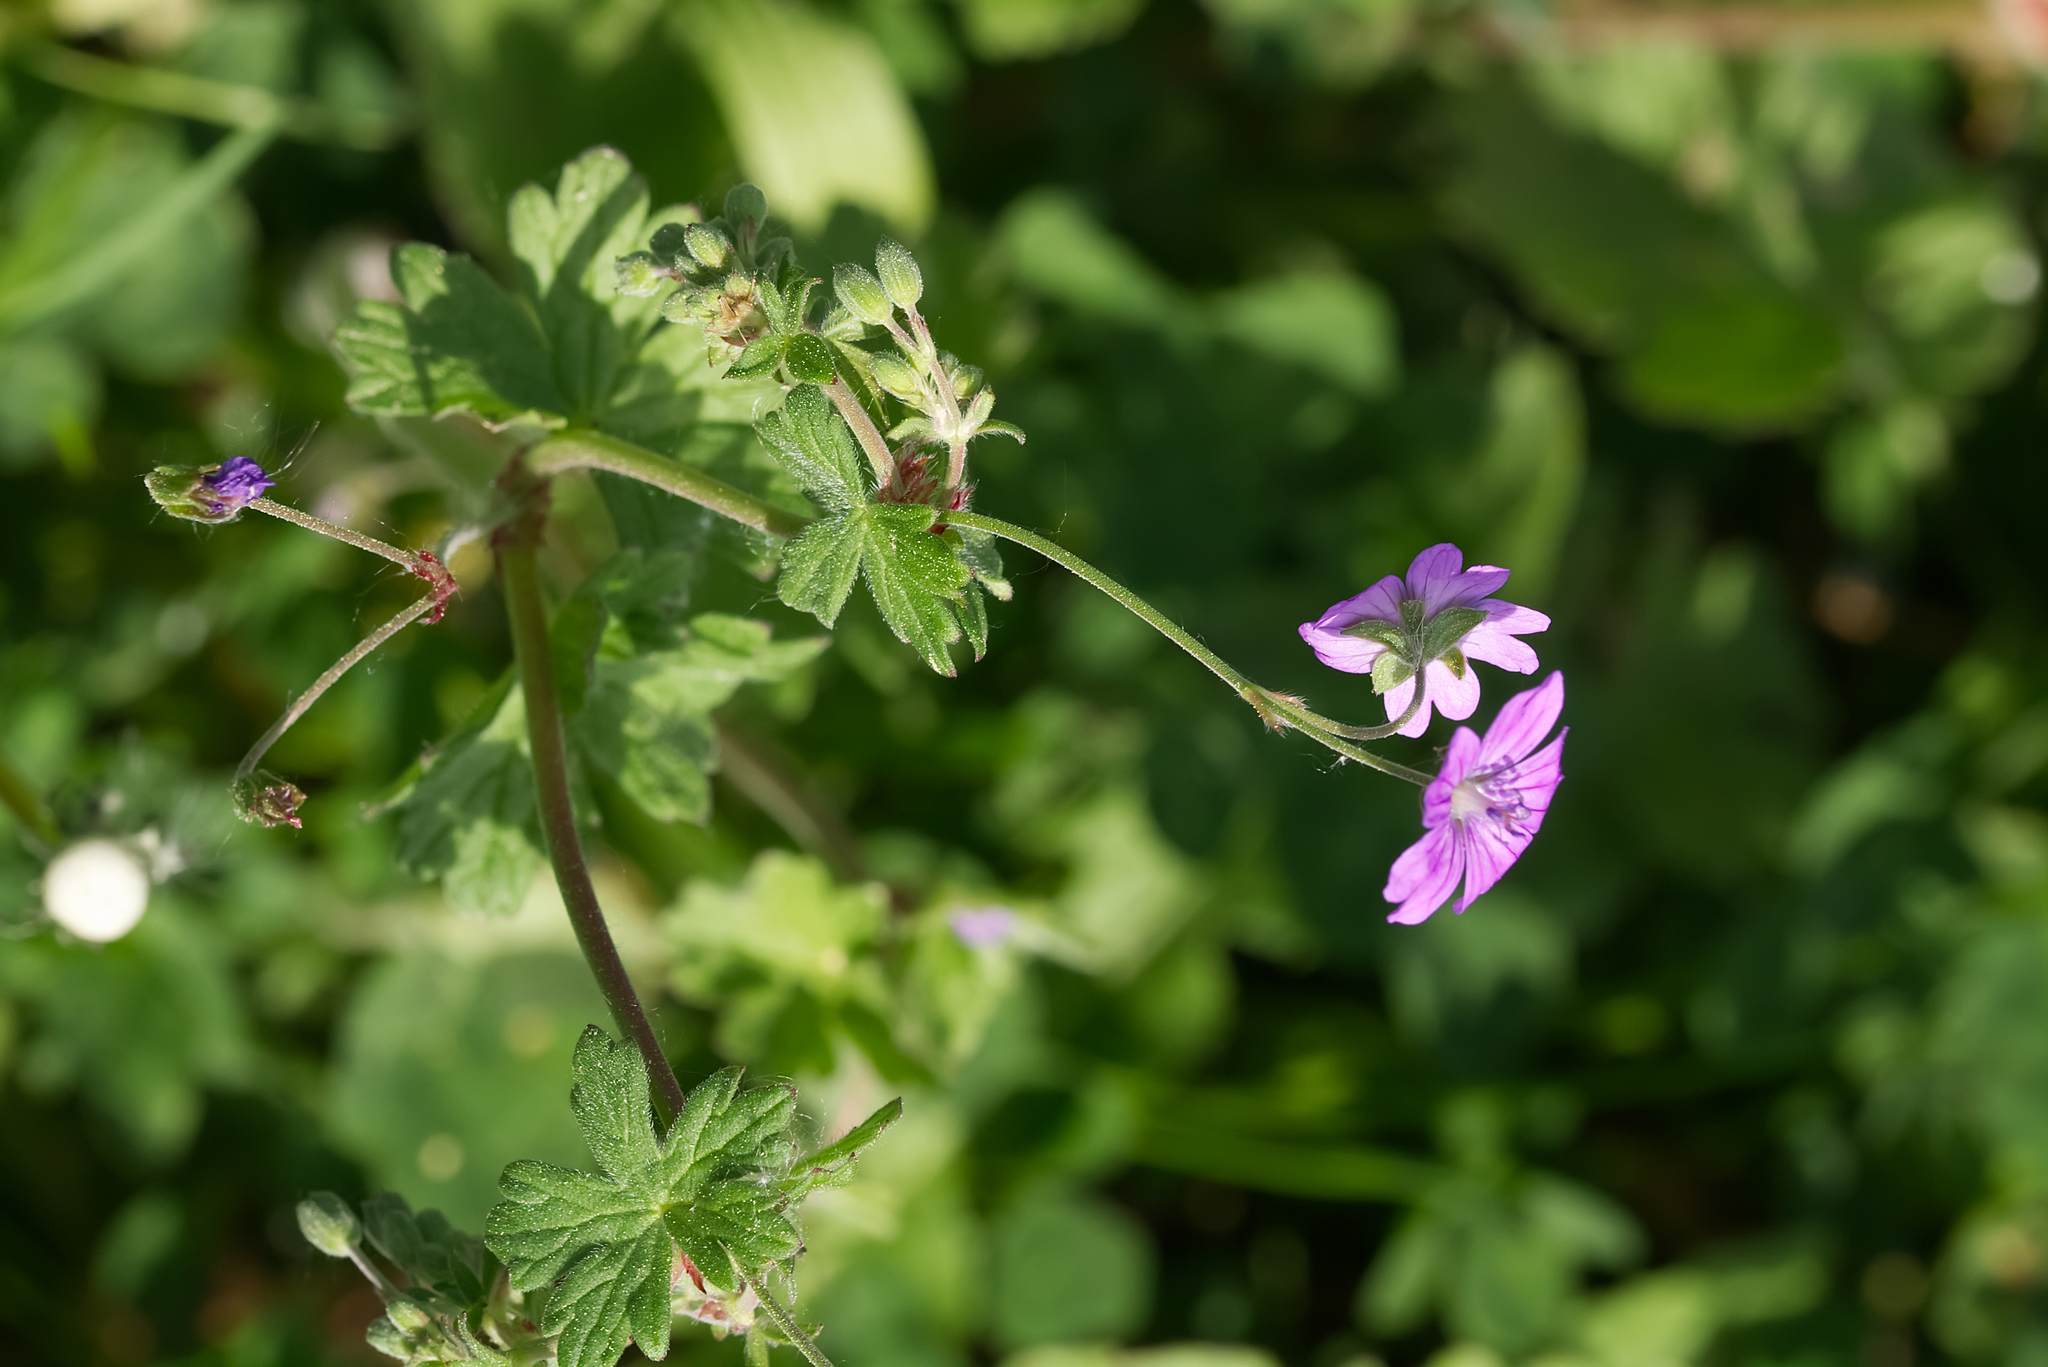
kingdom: Plantae
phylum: Tracheophyta
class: Magnoliopsida
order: Geraniales
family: Geraniaceae
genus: Geranium
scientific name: Geranium pyrenaicum
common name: Hedgerow crane's-bill
